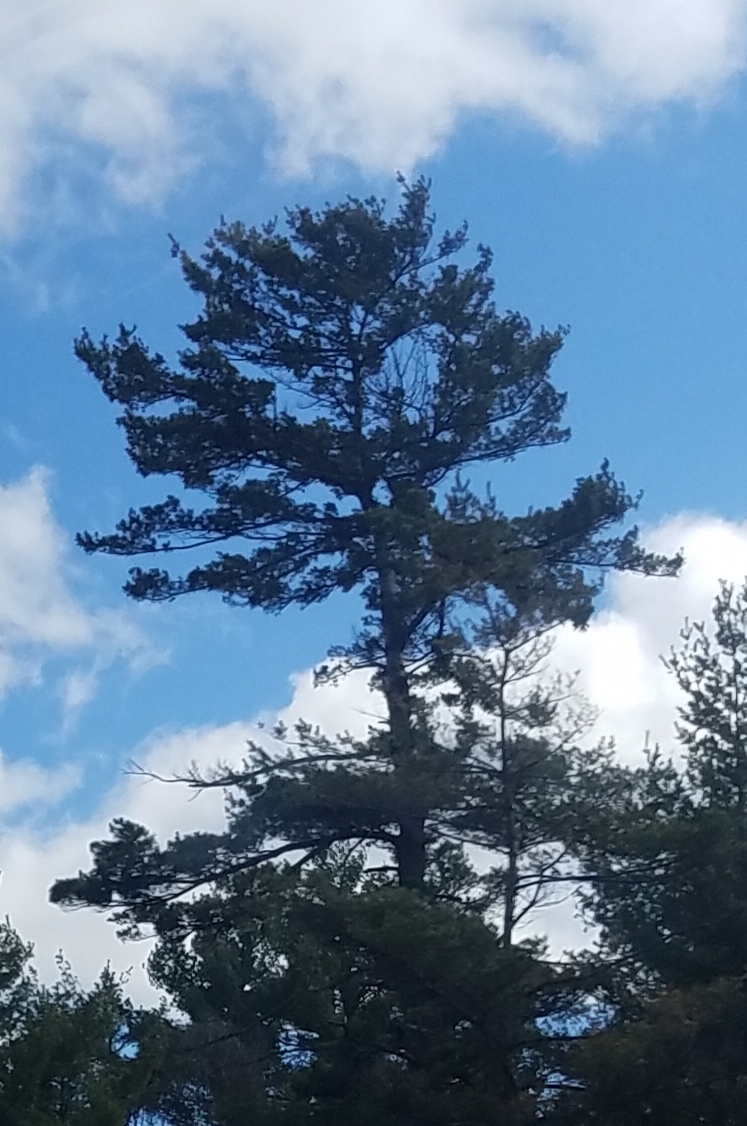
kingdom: Plantae
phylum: Tracheophyta
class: Pinopsida
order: Pinales
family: Pinaceae
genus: Pinus
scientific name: Pinus strobus
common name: Weymouth pine
